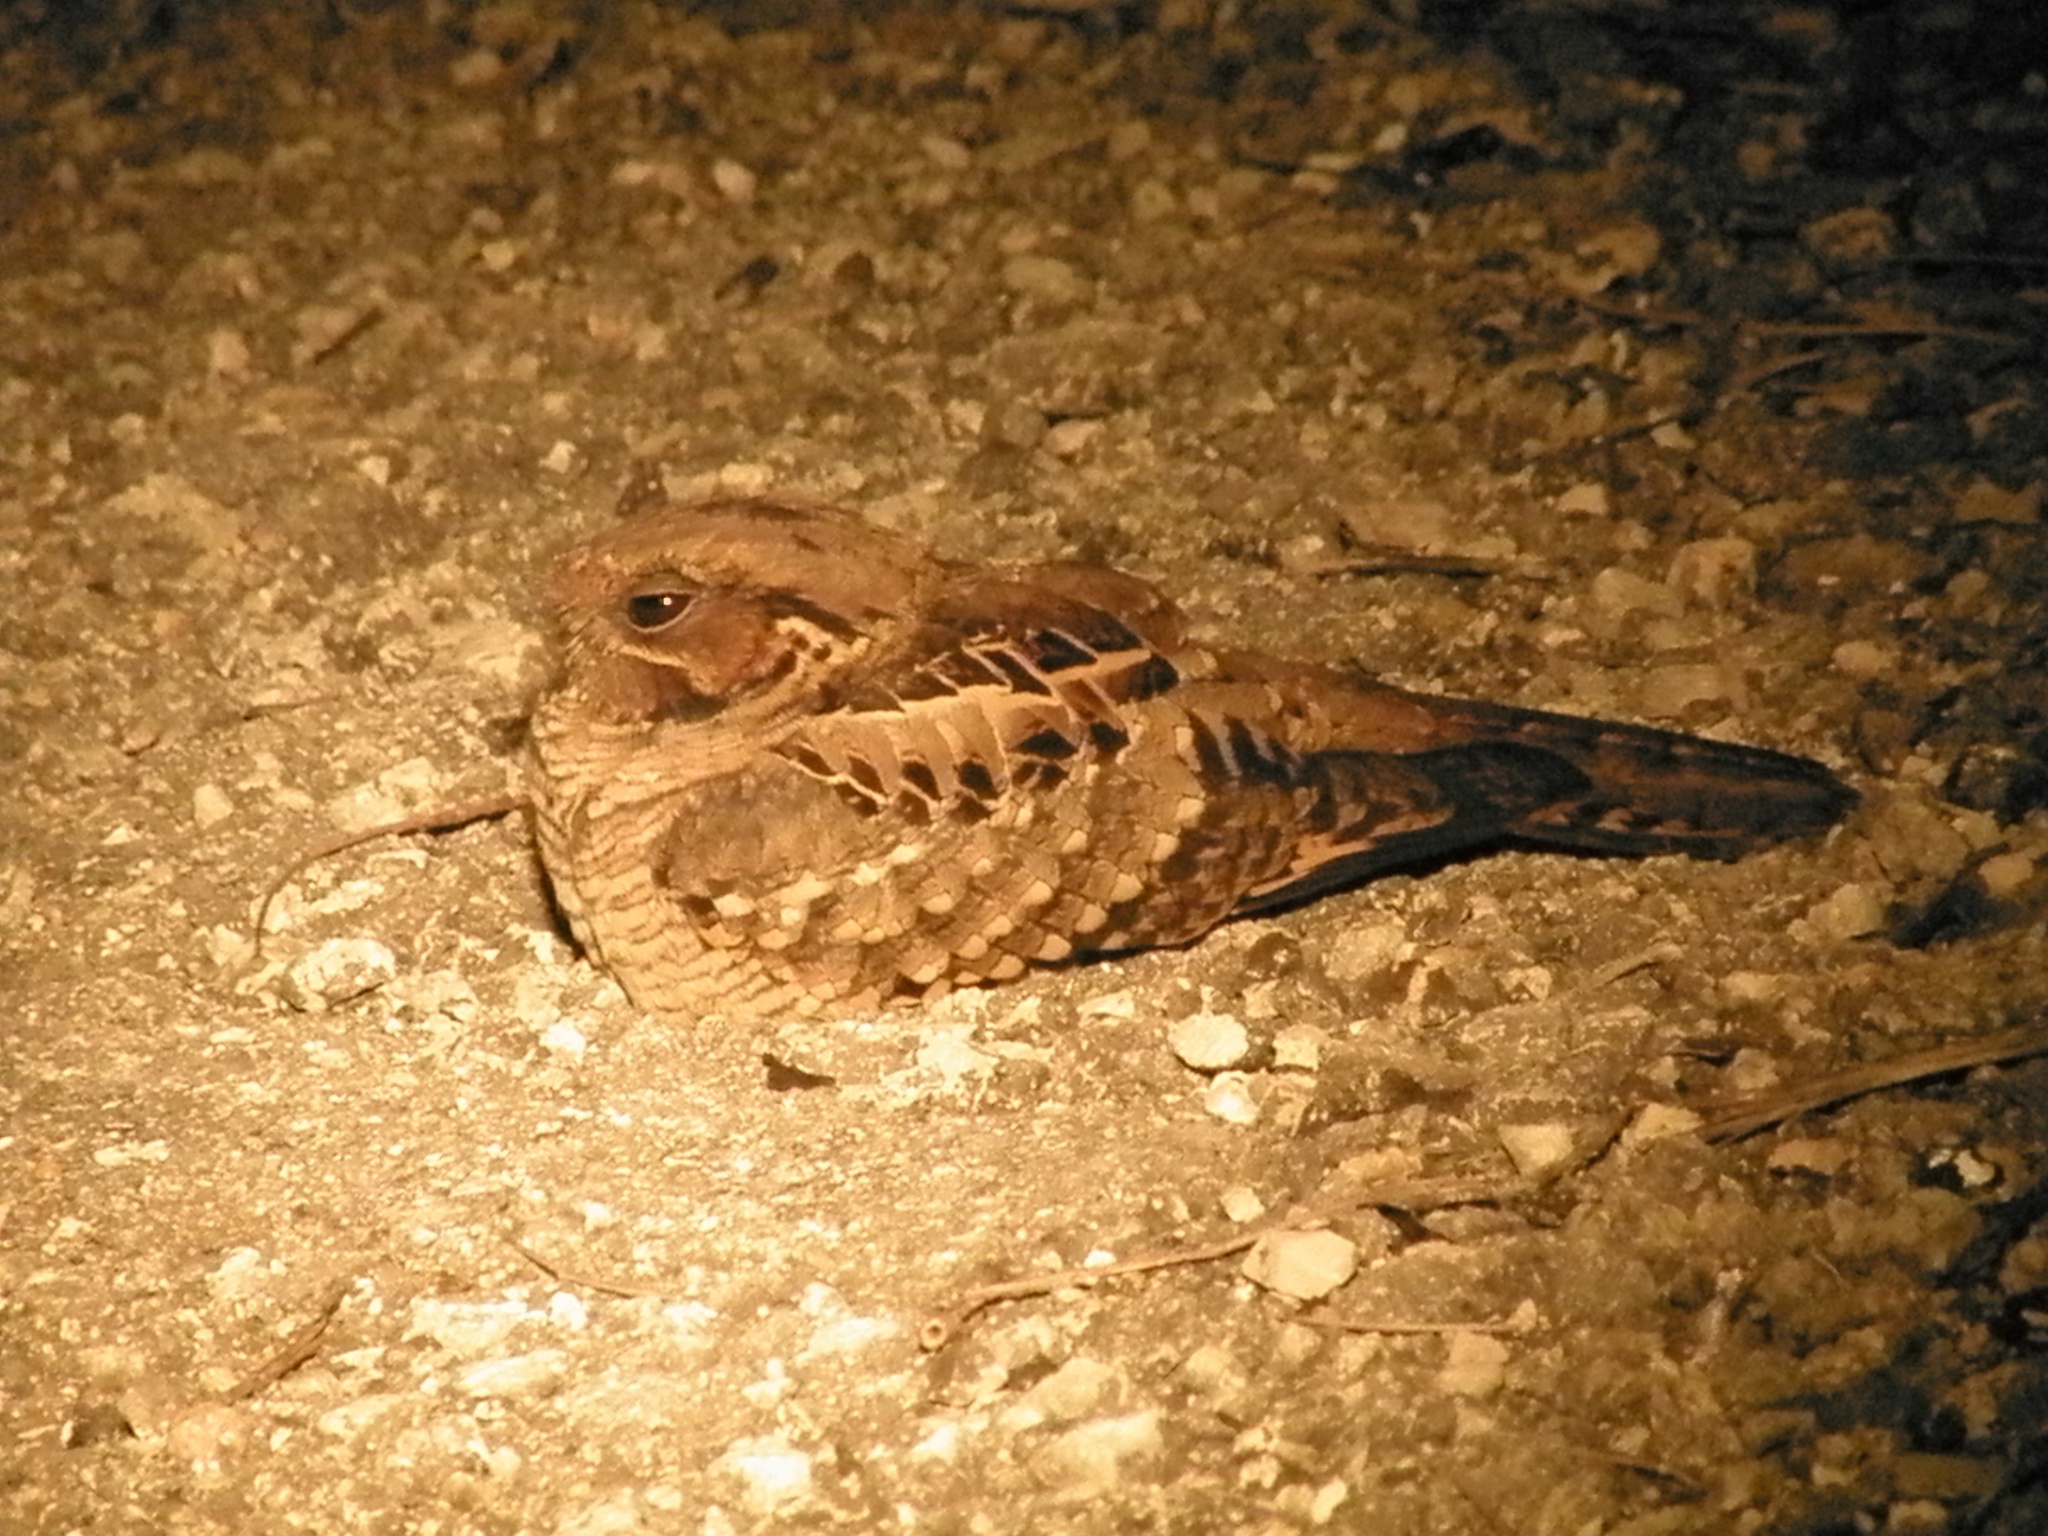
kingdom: Animalia
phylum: Chordata
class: Aves
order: Caprimulgiformes
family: Caprimulgidae
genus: Nyctidromus
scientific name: Nyctidromus albicollis
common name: Pauraque
